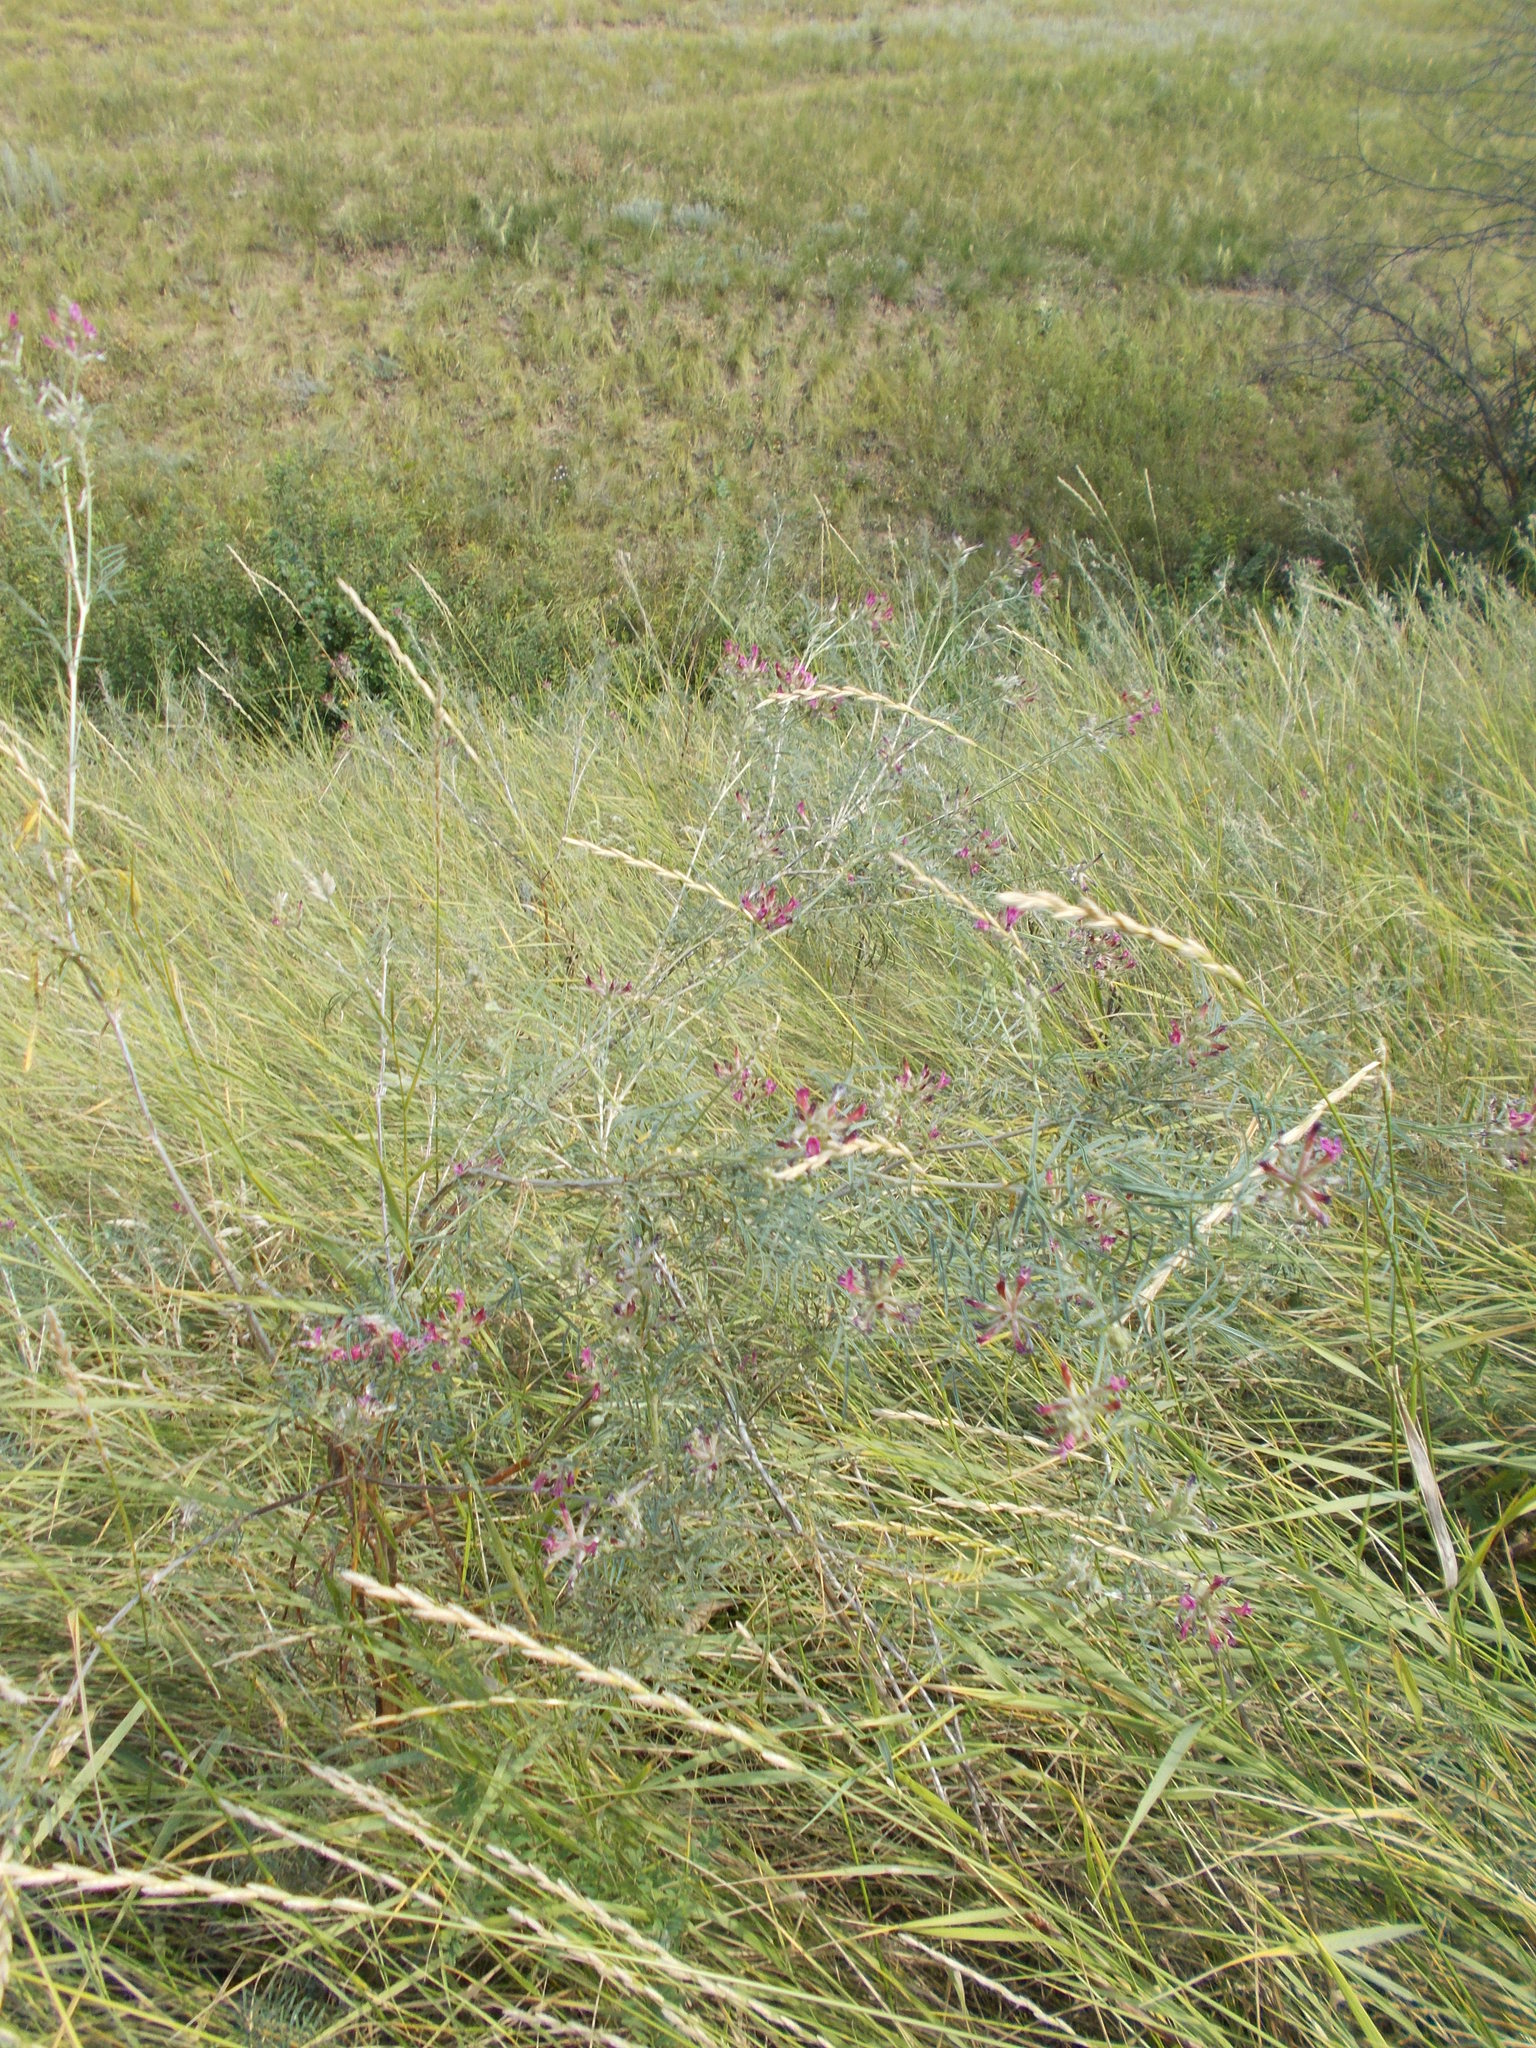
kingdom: Plantae
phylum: Tracheophyta
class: Magnoliopsida
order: Fabales
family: Fabaceae
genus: Astragalus
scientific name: Astragalus varius
